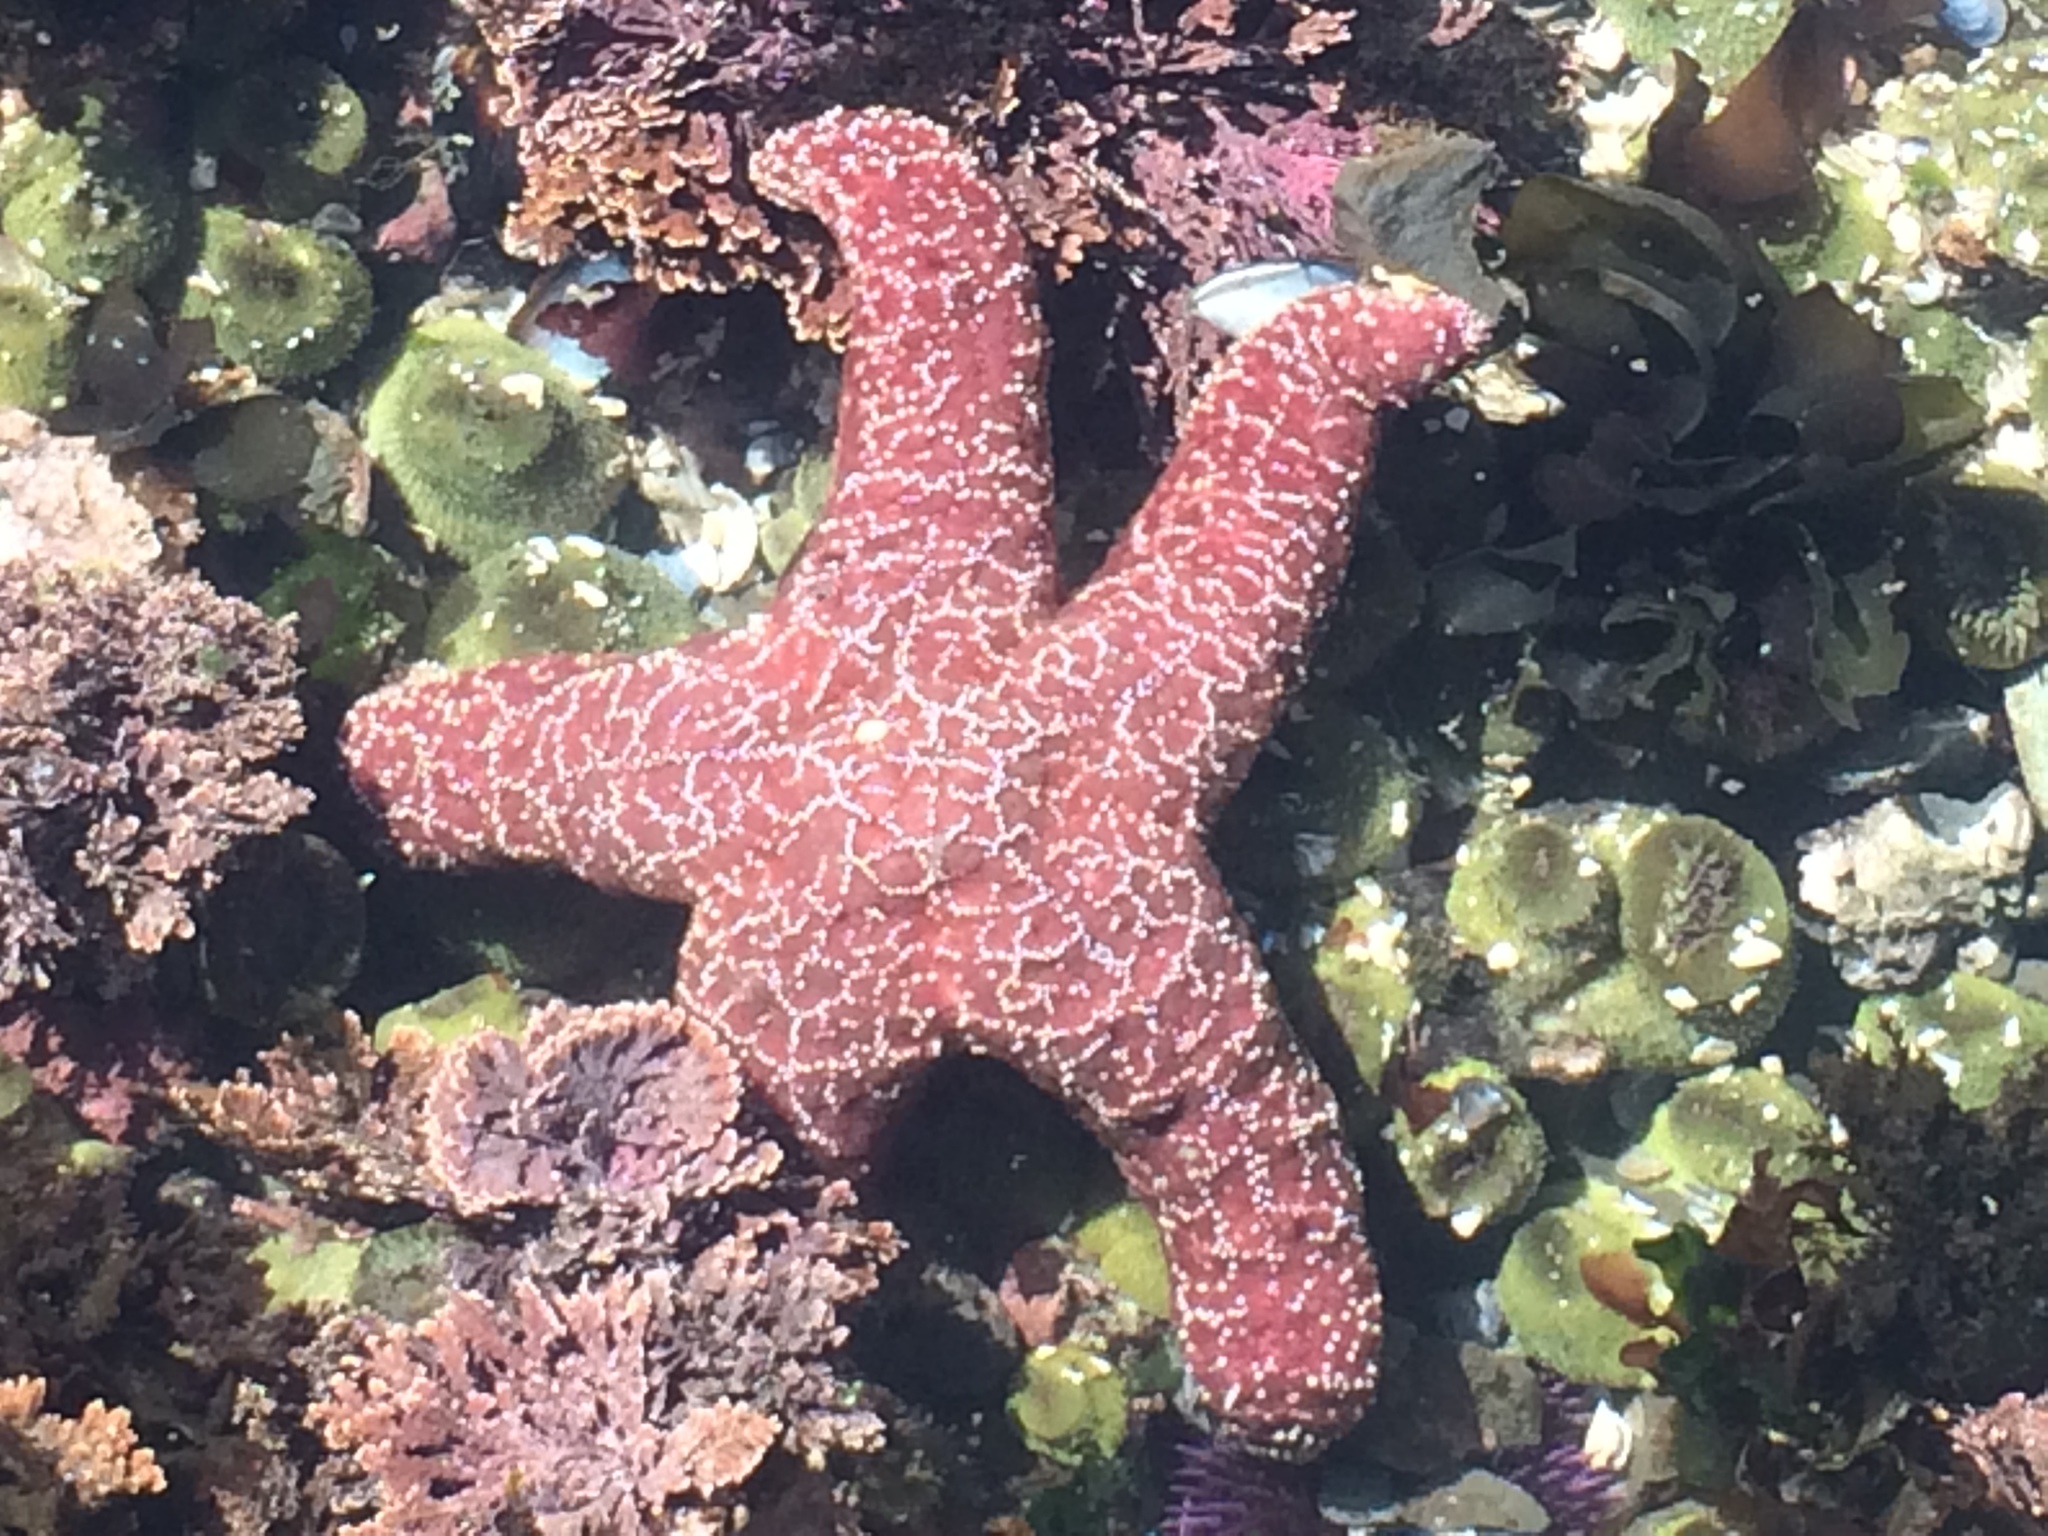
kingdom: Animalia
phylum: Echinodermata
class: Asteroidea
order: Forcipulatida
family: Asteriidae
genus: Pisaster
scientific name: Pisaster ochraceus
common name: Ochre stars
